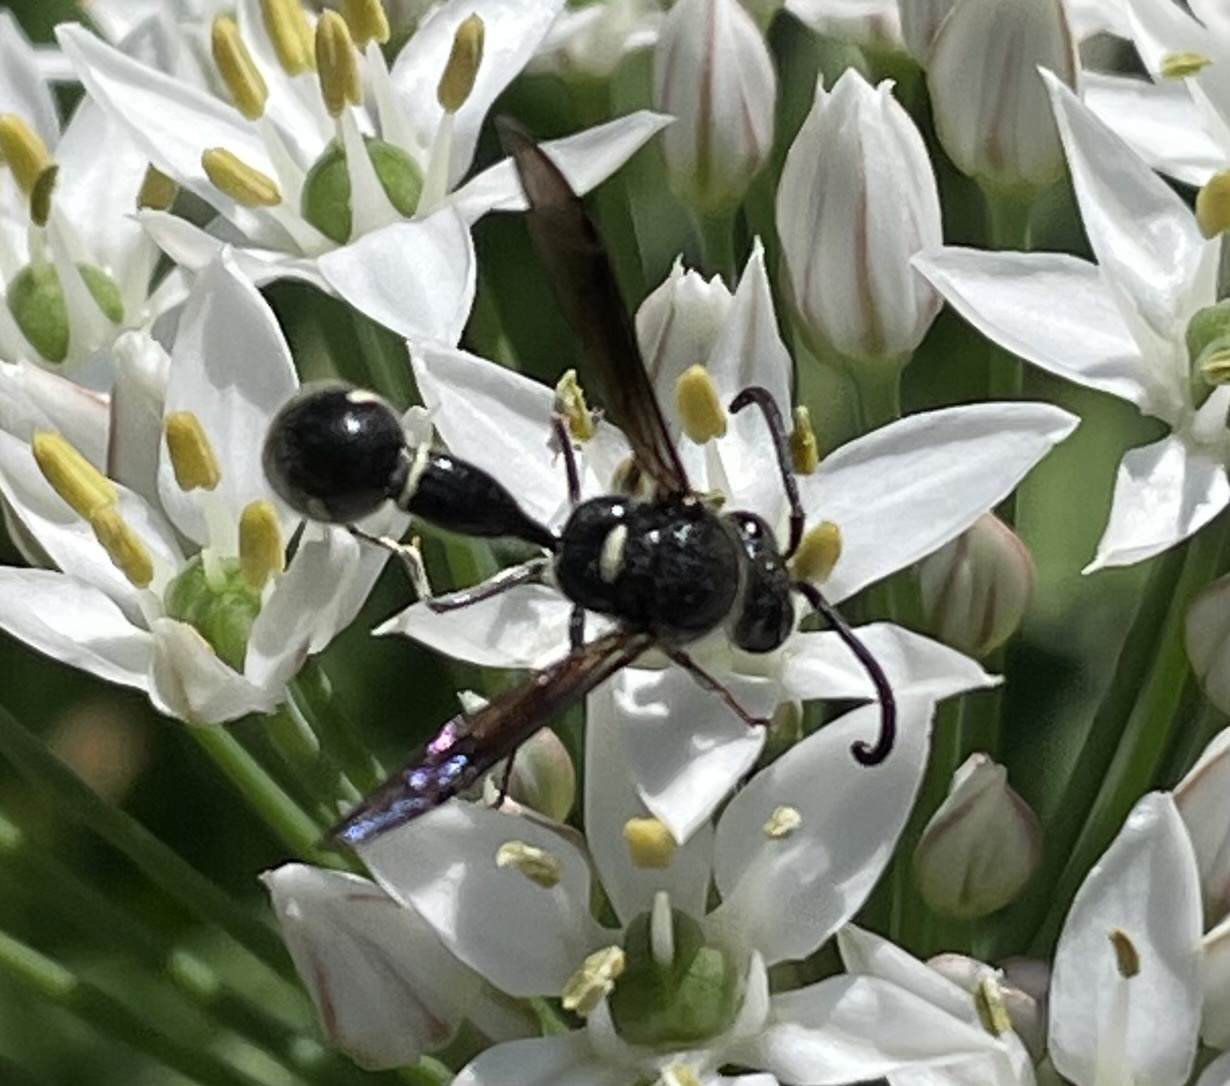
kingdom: Animalia
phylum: Arthropoda
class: Insecta
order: Hymenoptera
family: Vespidae
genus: Eumenes
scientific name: Eumenes fraternus
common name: Fraternal potter wasp
